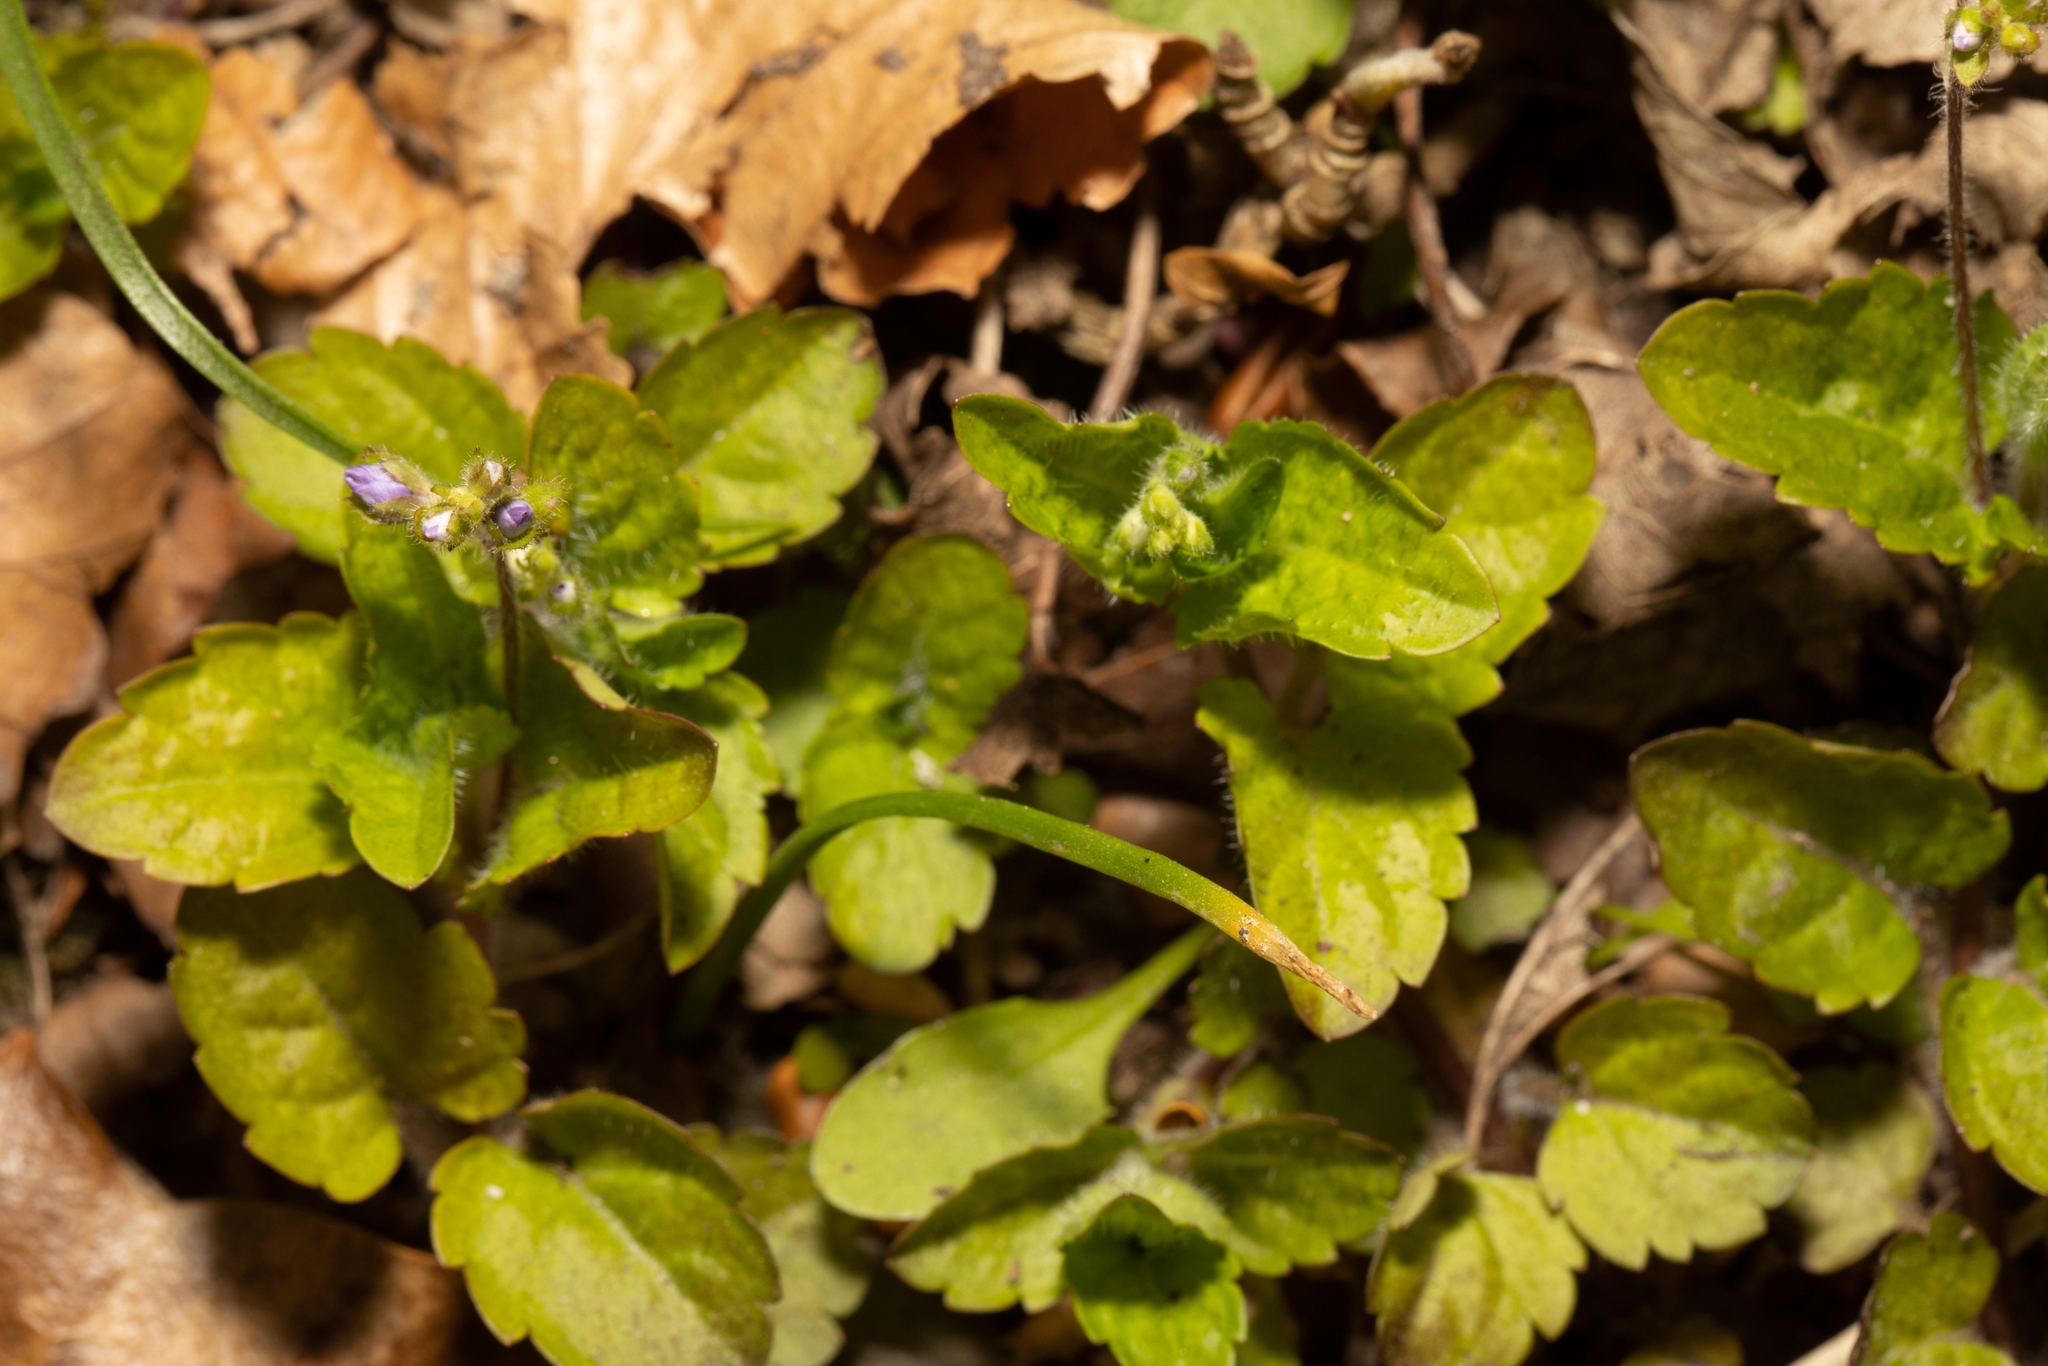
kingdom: Plantae
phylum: Tracheophyta
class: Magnoliopsida
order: Lamiales
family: Plantaginaceae
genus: Veronica
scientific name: Veronica montana
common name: Wood speedwell
